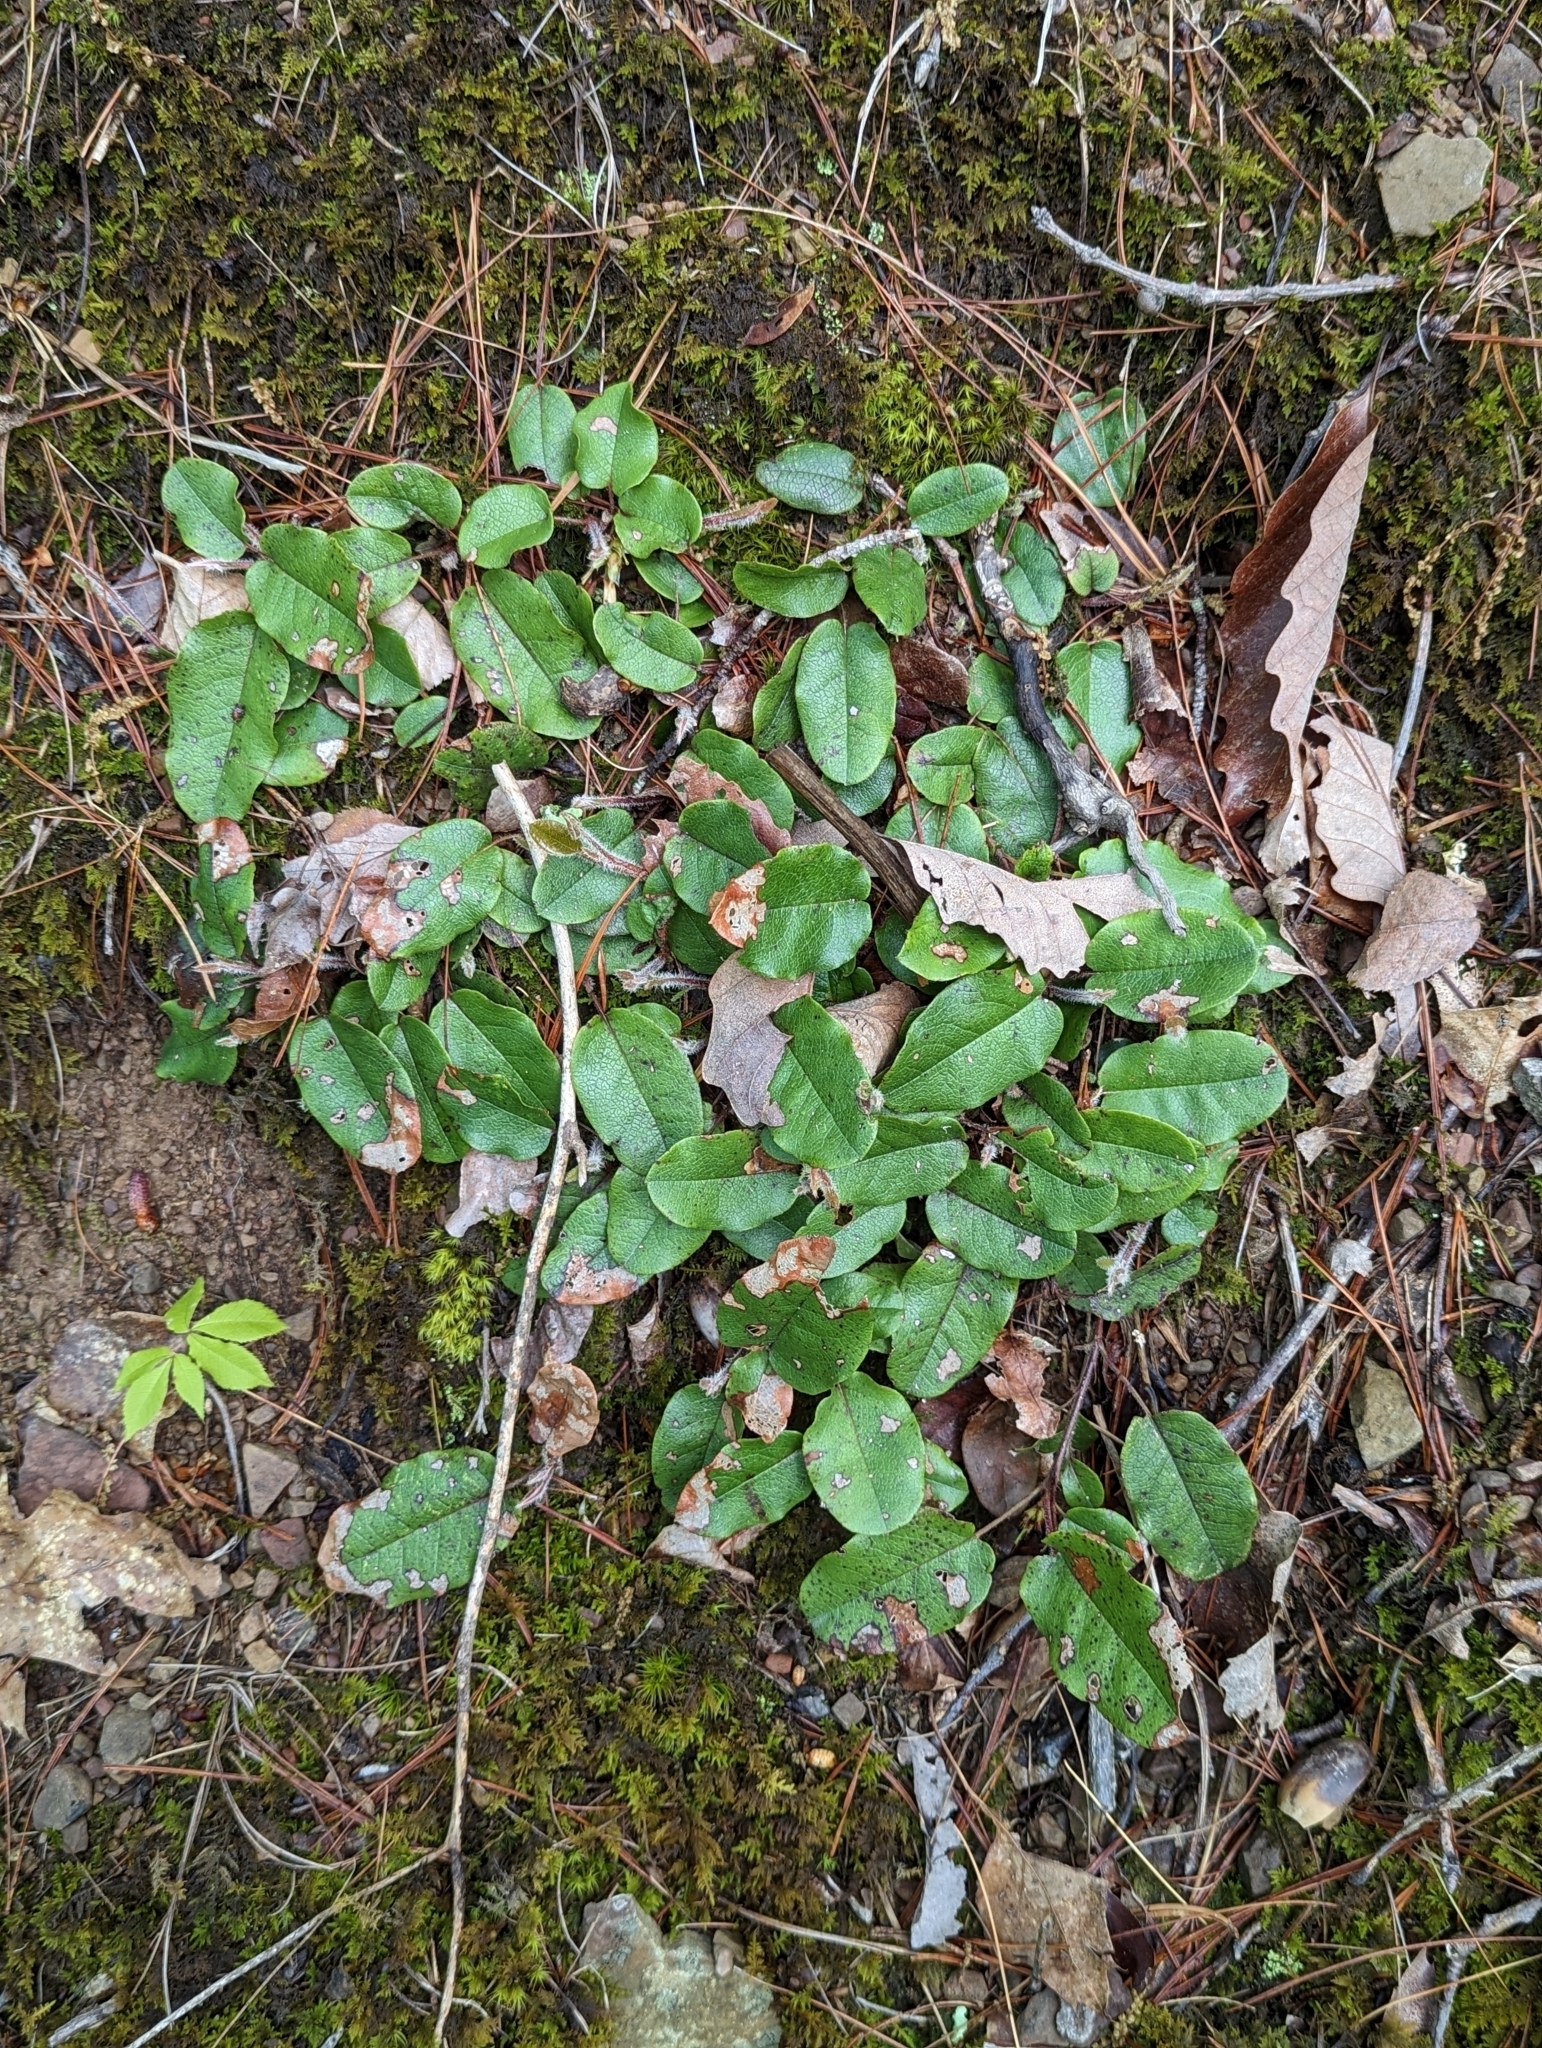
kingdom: Plantae
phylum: Tracheophyta
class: Magnoliopsida
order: Ericales
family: Ericaceae
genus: Epigaea
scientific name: Epigaea repens
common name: Gravelroot
